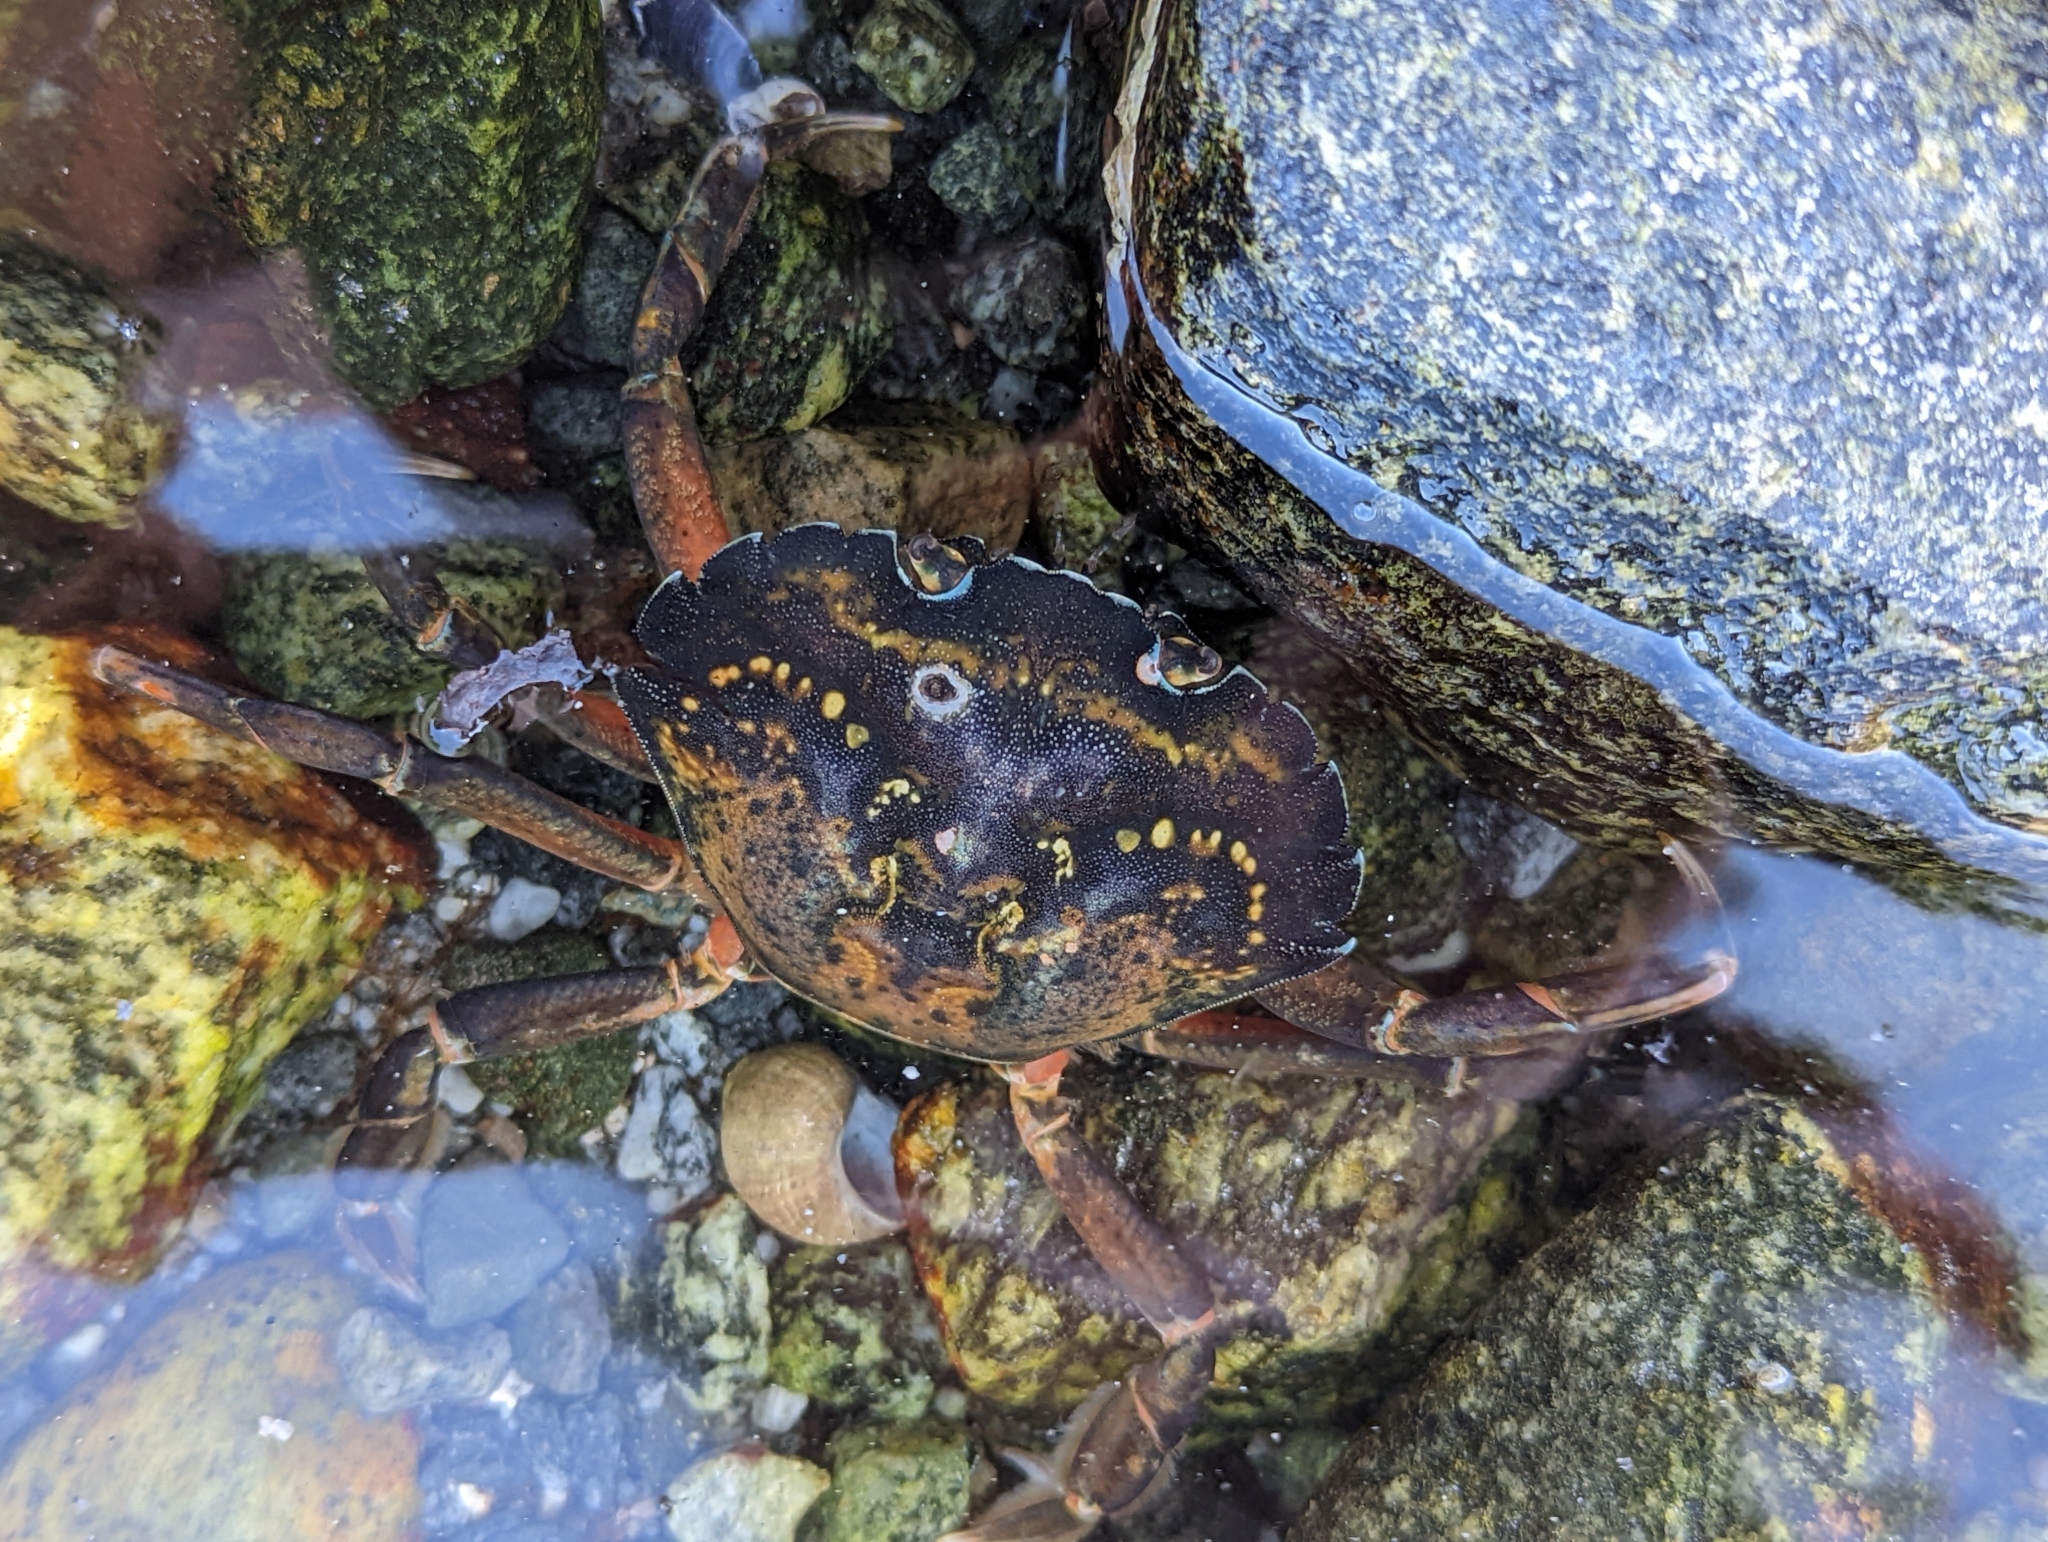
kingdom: Animalia
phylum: Arthropoda
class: Malacostraca
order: Decapoda
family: Carcinidae
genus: Carcinus
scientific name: Carcinus maenas
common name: European green crab
